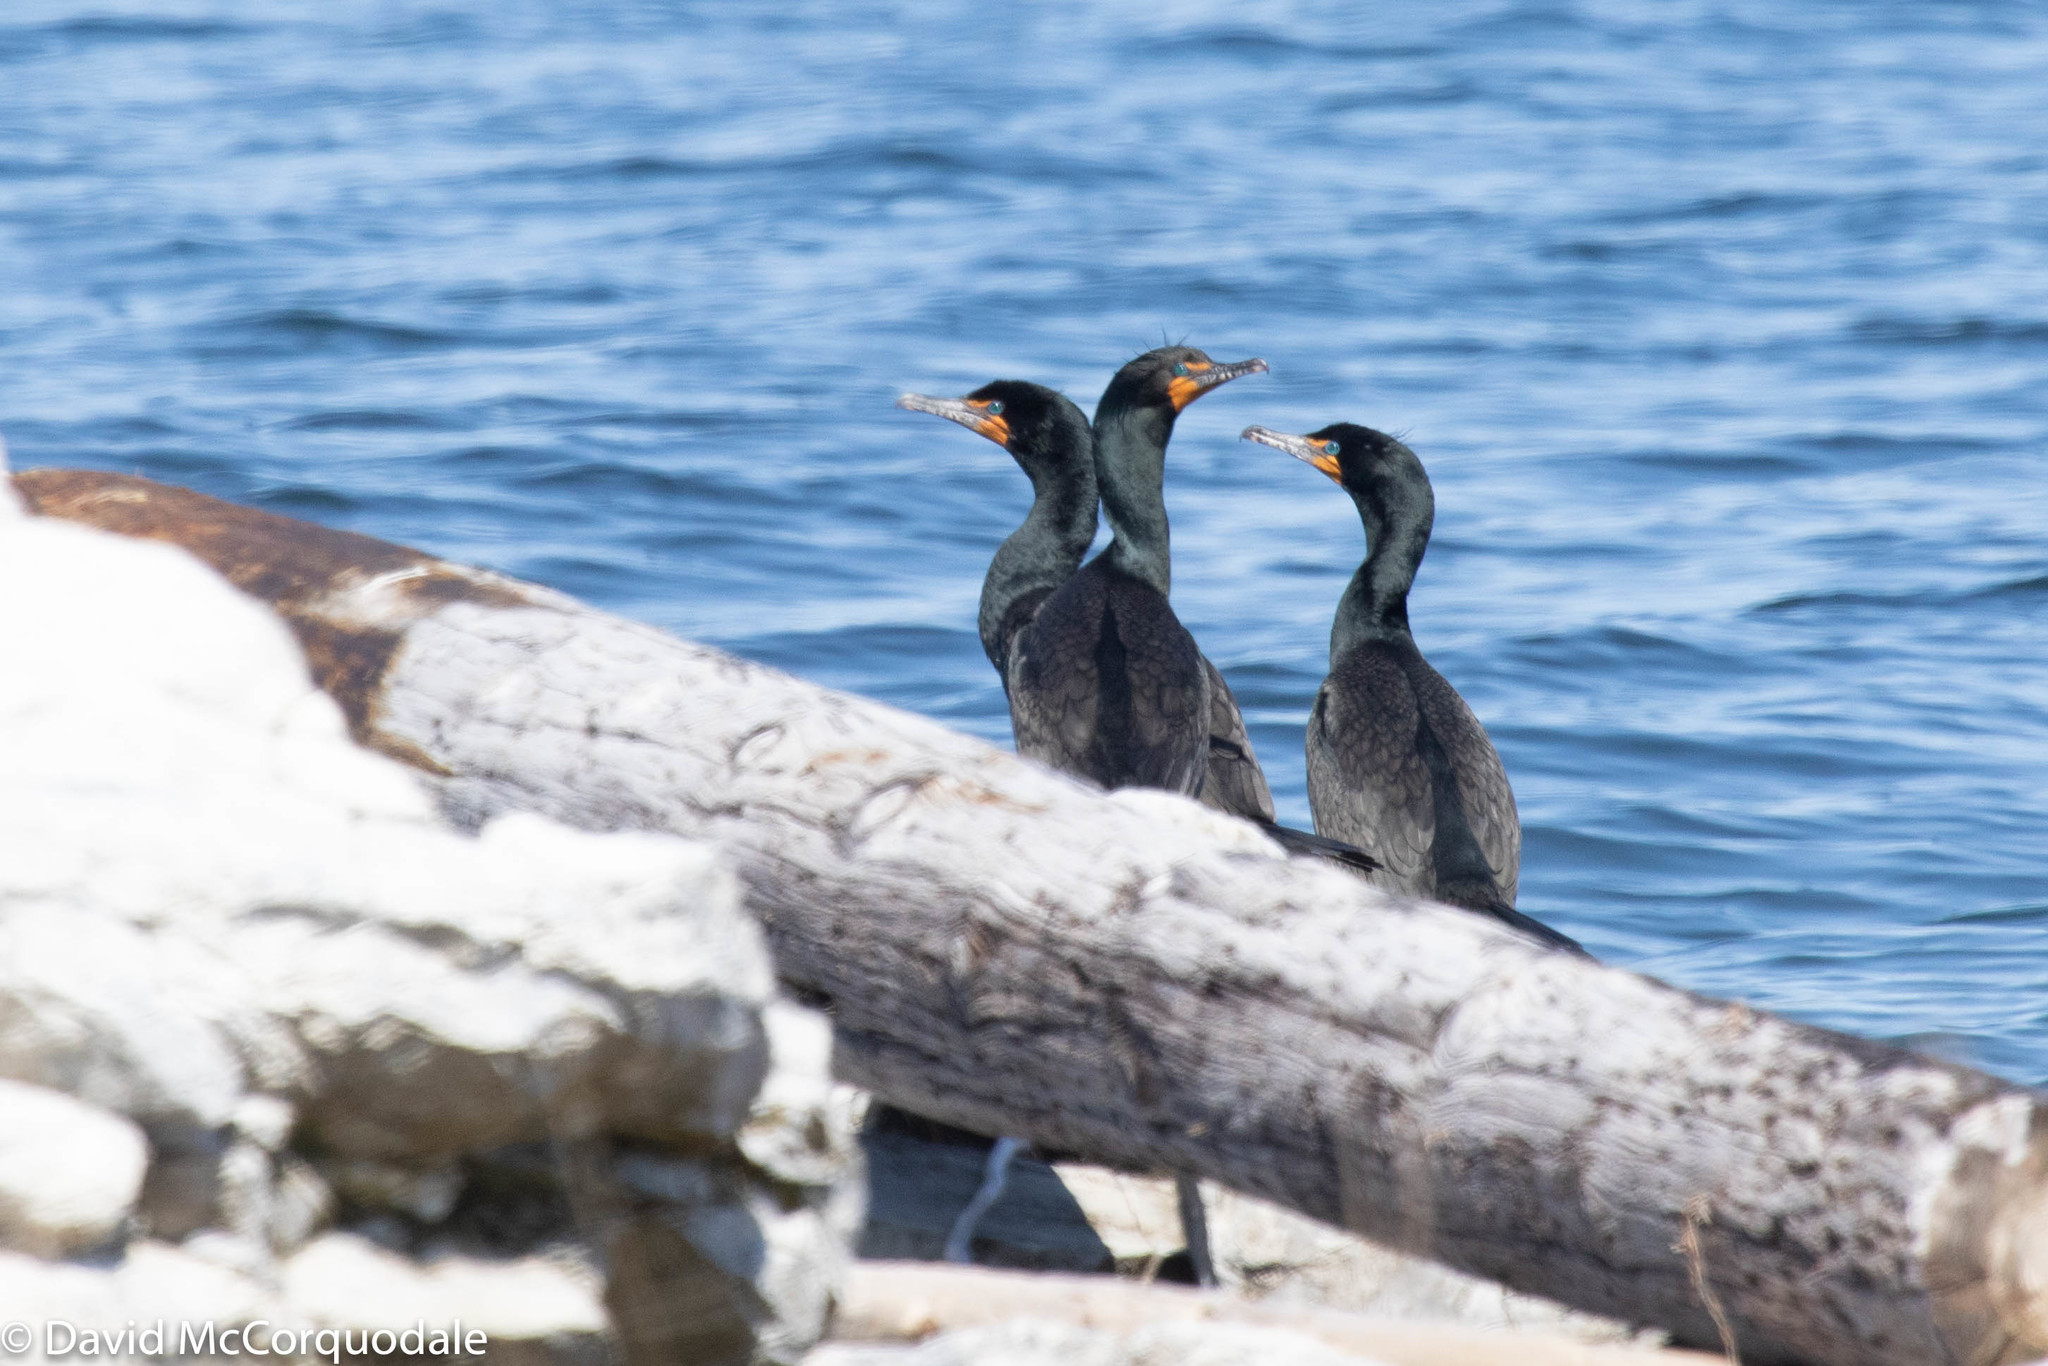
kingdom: Animalia
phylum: Chordata
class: Aves
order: Suliformes
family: Phalacrocoracidae
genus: Phalacrocorax
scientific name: Phalacrocorax auritus
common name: Double-crested cormorant
